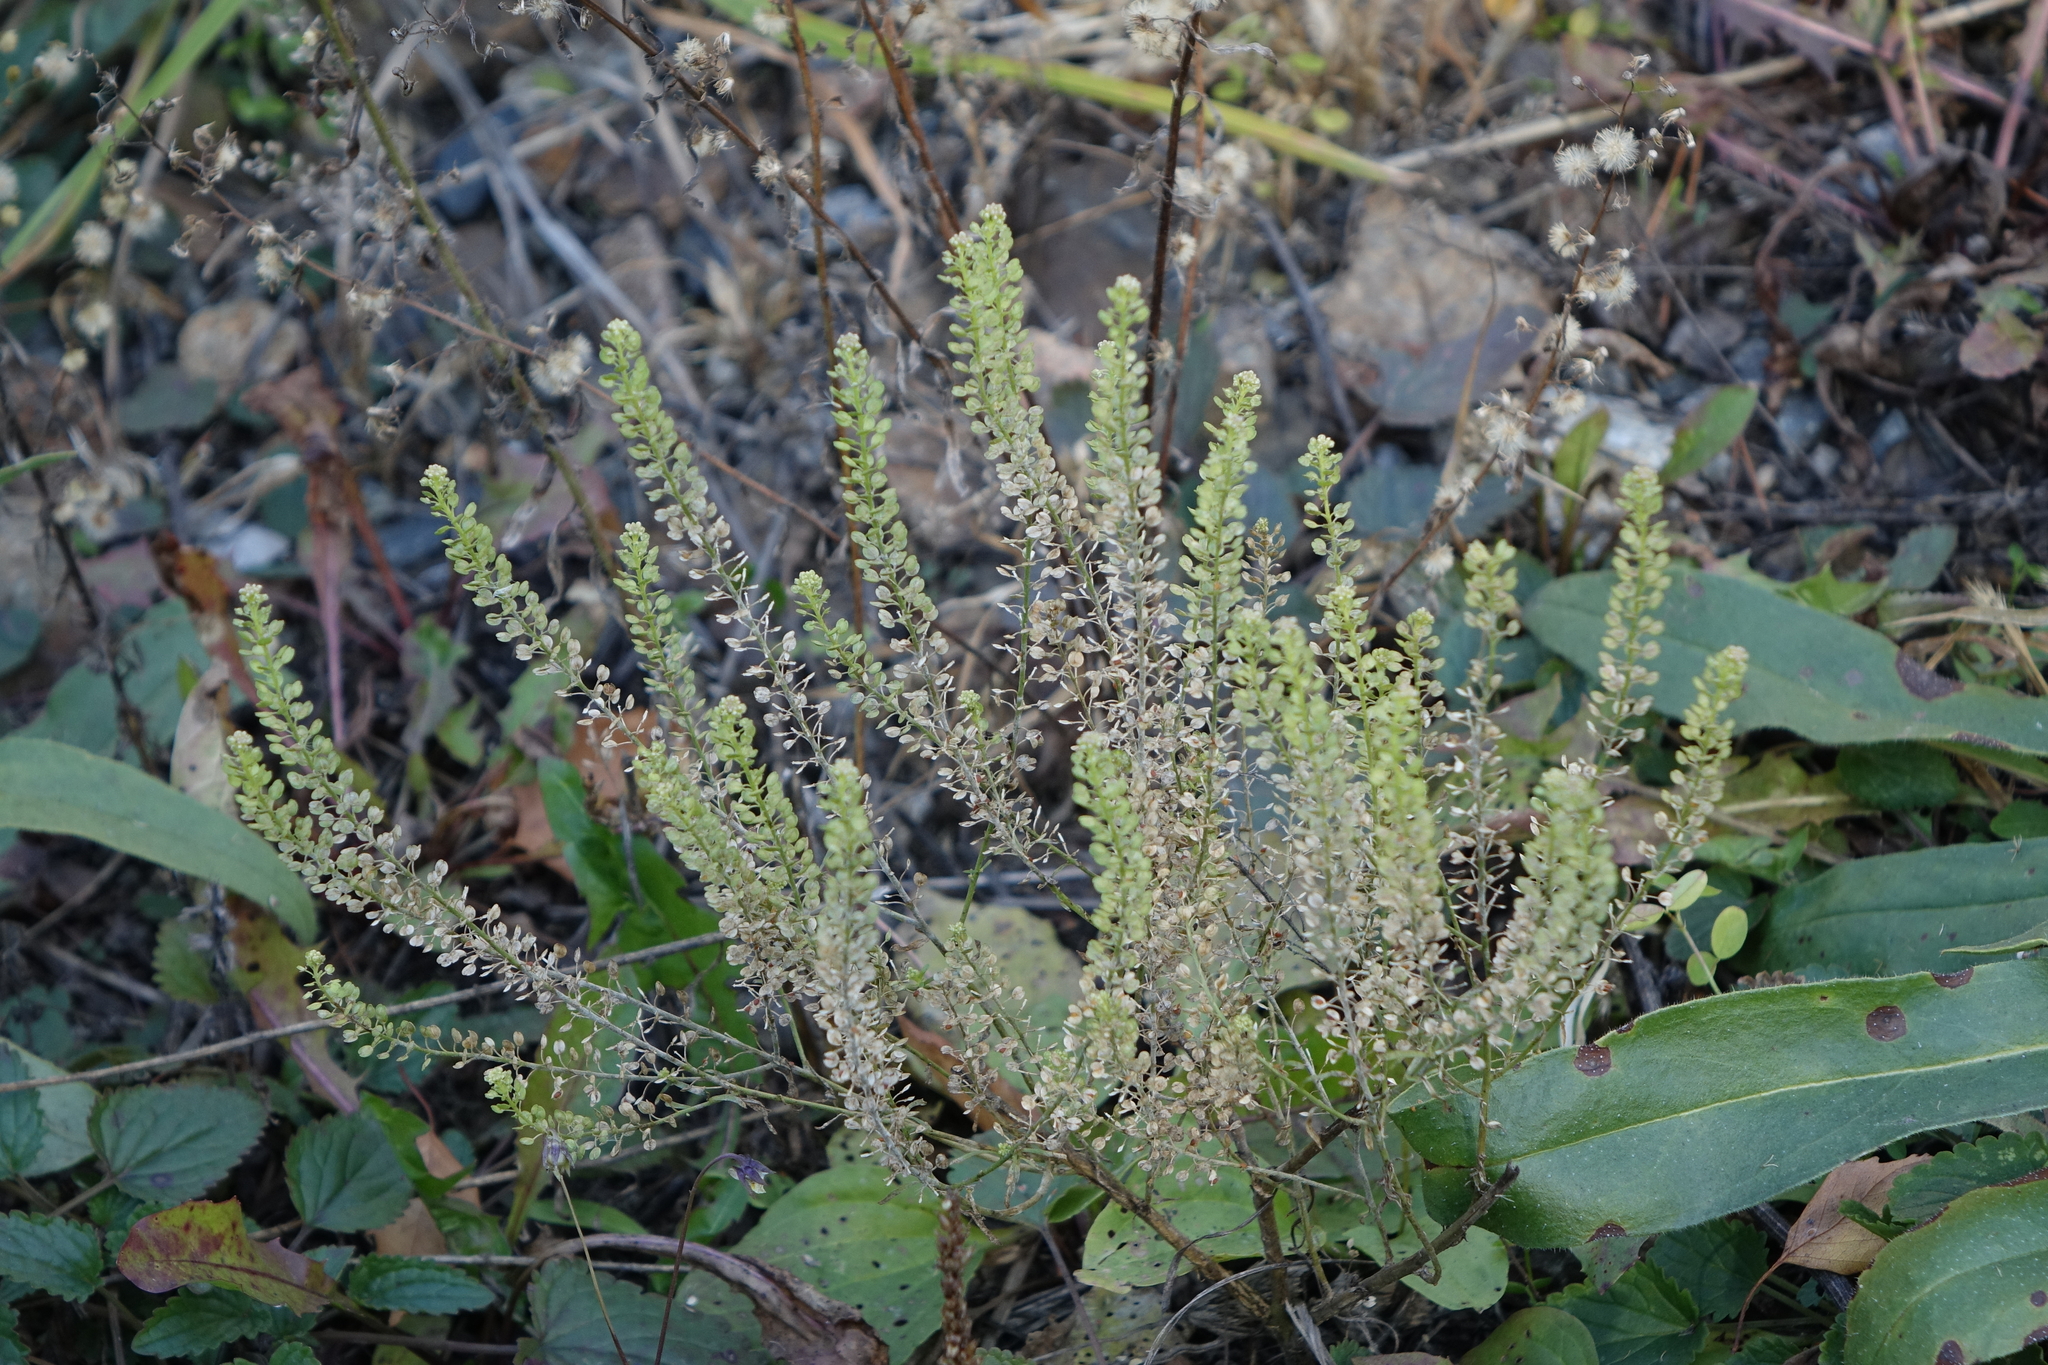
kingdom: Plantae
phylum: Tracheophyta
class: Magnoliopsida
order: Brassicales
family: Brassicaceae
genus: Lepidium
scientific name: Lepidium densiflorum
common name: Miner's pepperwort
